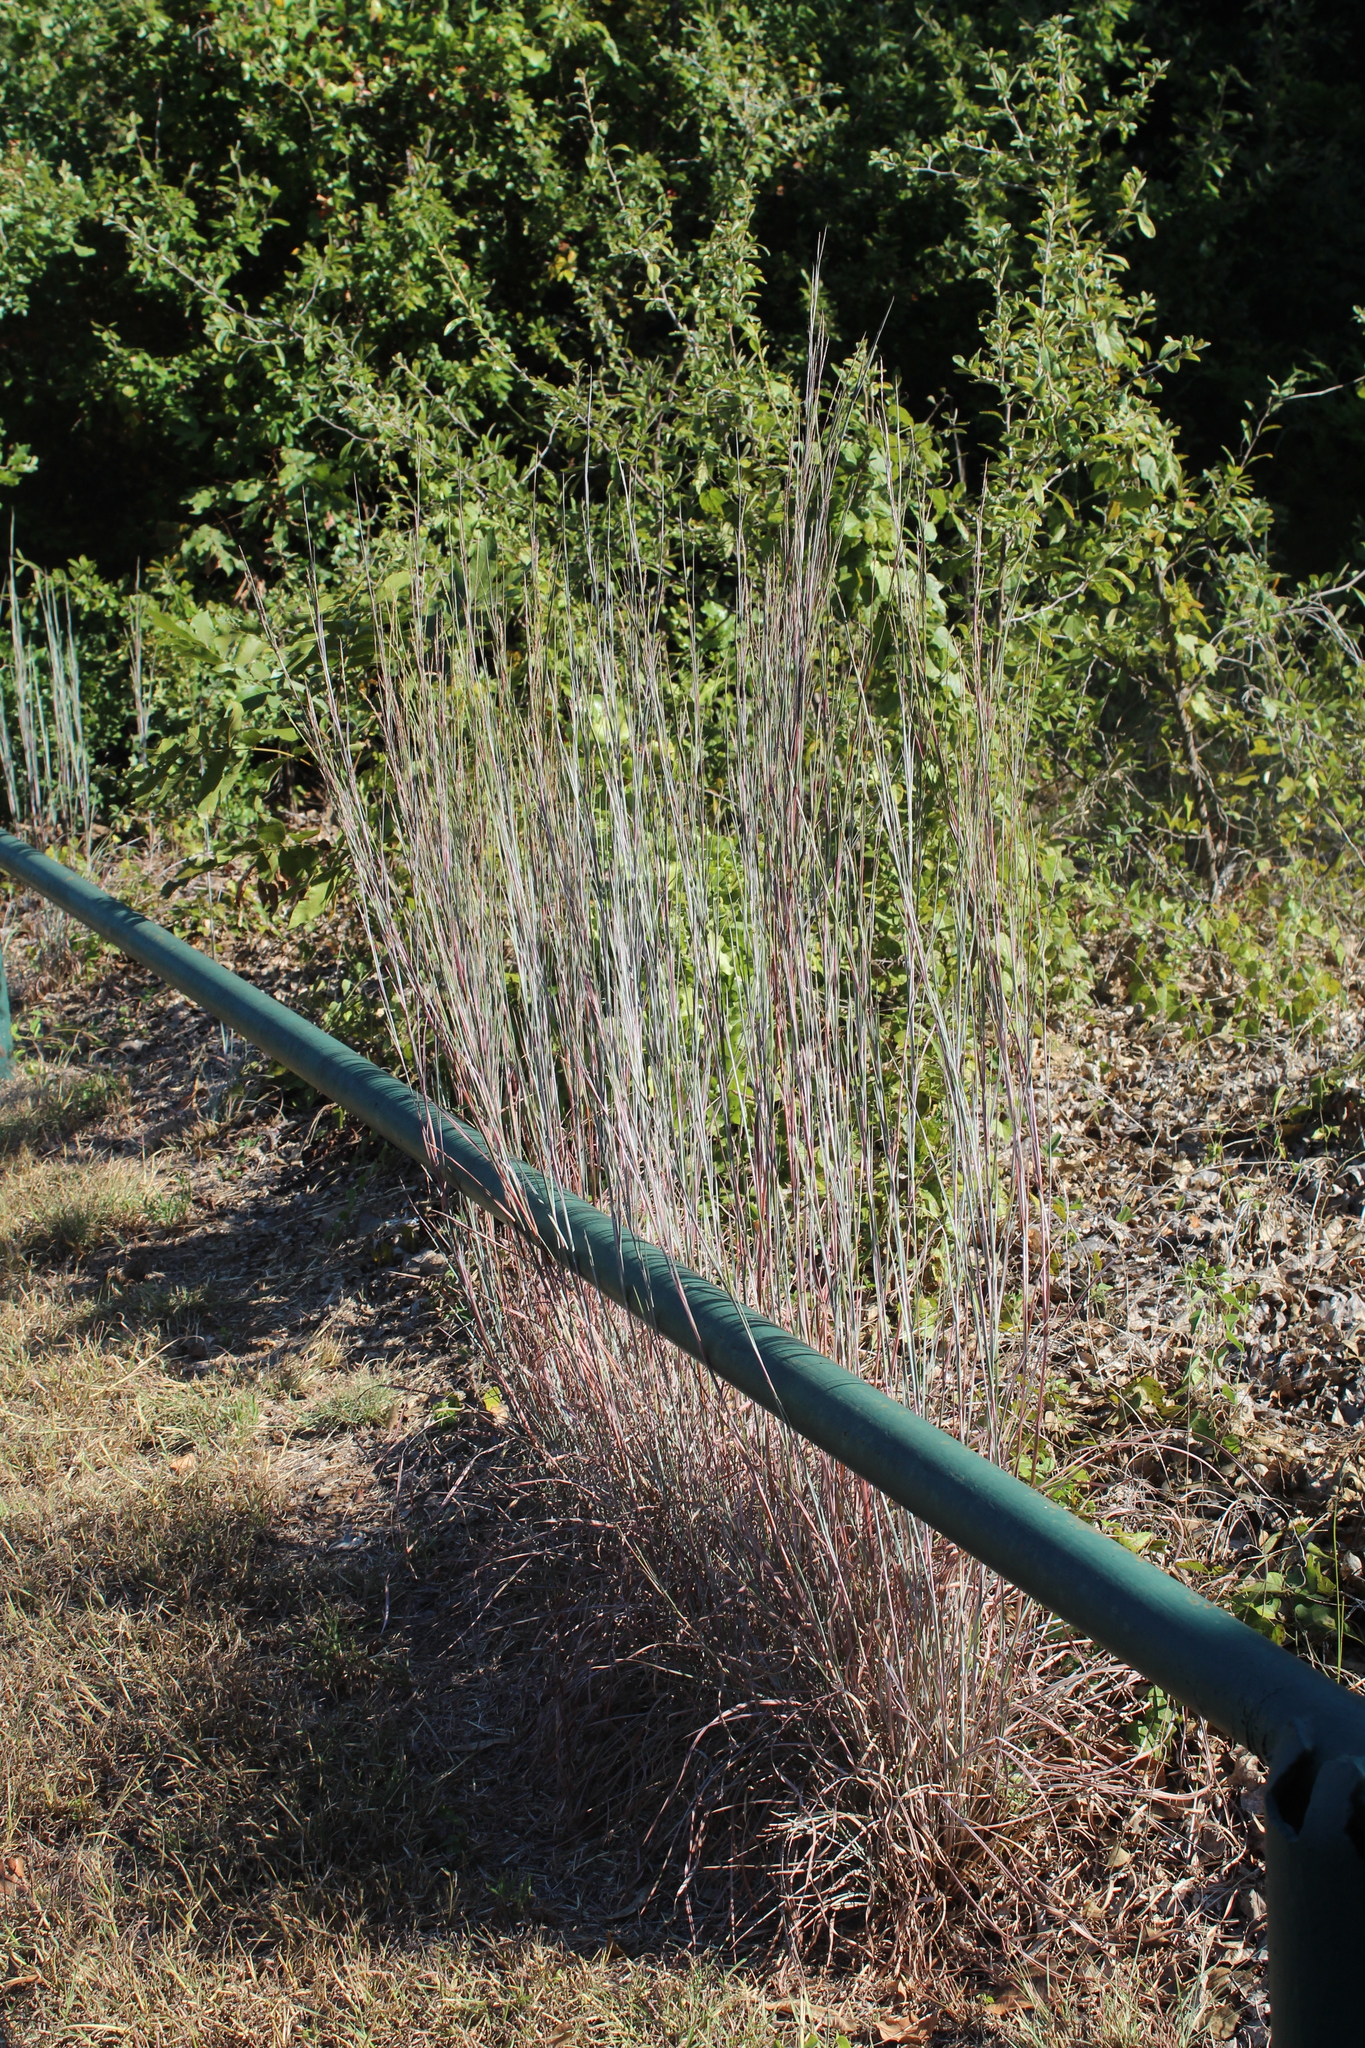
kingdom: Plantae
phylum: Tracheophyta
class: Liliopsida
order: Poales
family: Poaceae
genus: Schizachyrium
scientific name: Schizachyrium scoparium
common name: Little bluestem
